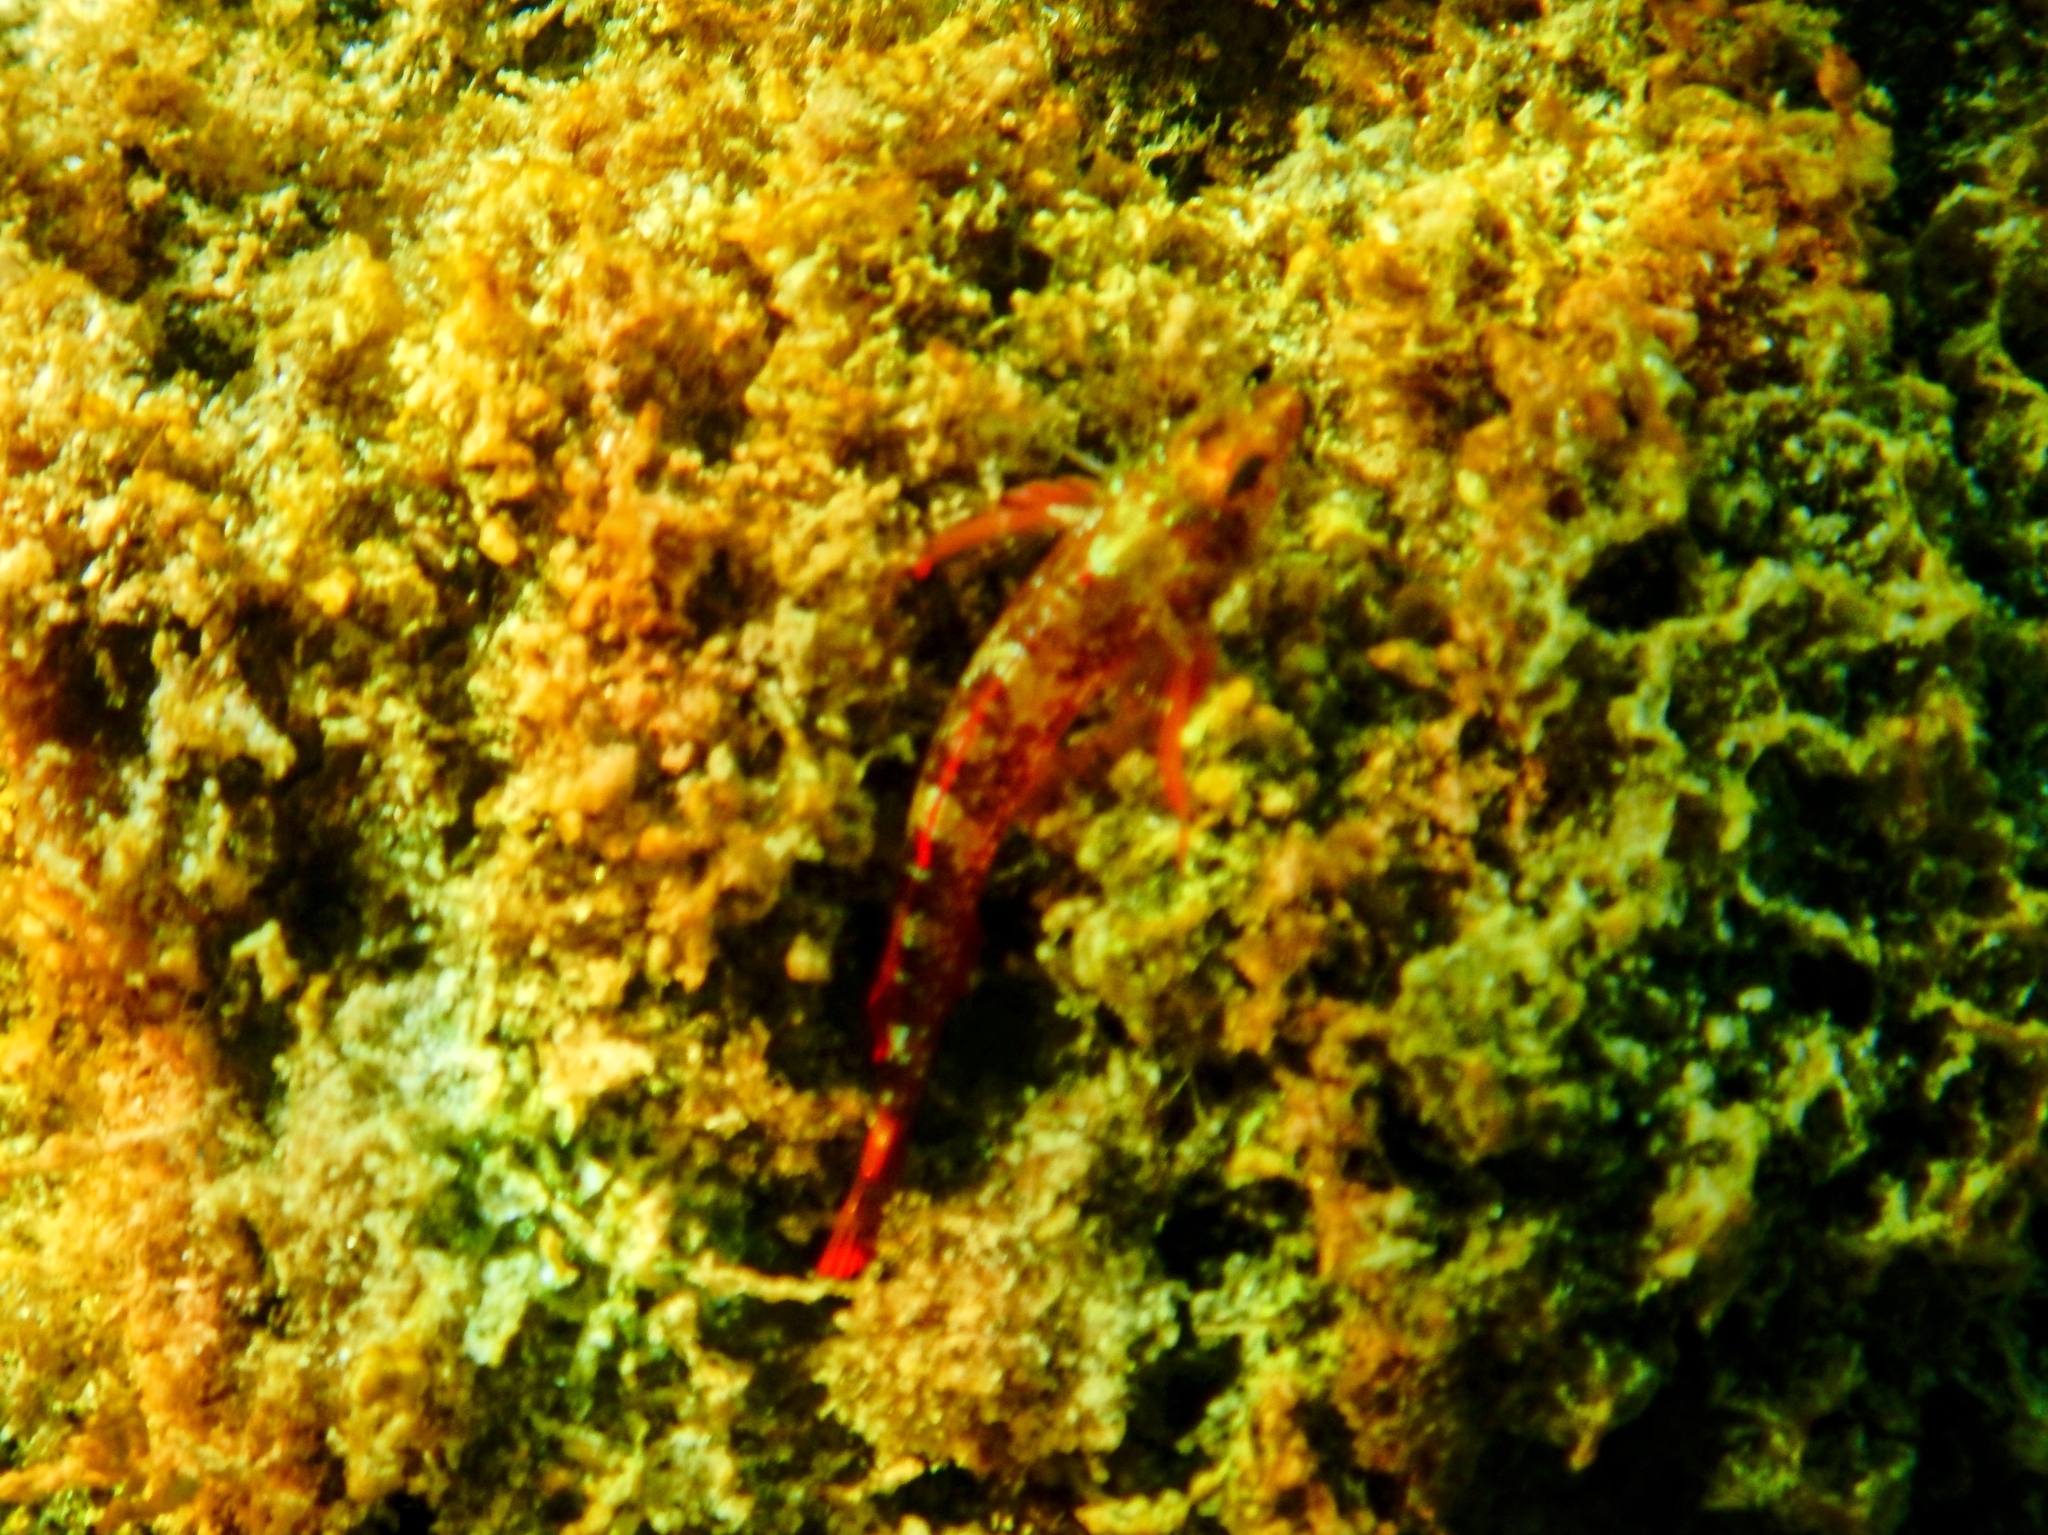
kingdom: Animalia
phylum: Chordata
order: Perciformes
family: Tripterygiidae
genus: Tripterygion
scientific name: Tripterygion tripteronotum
